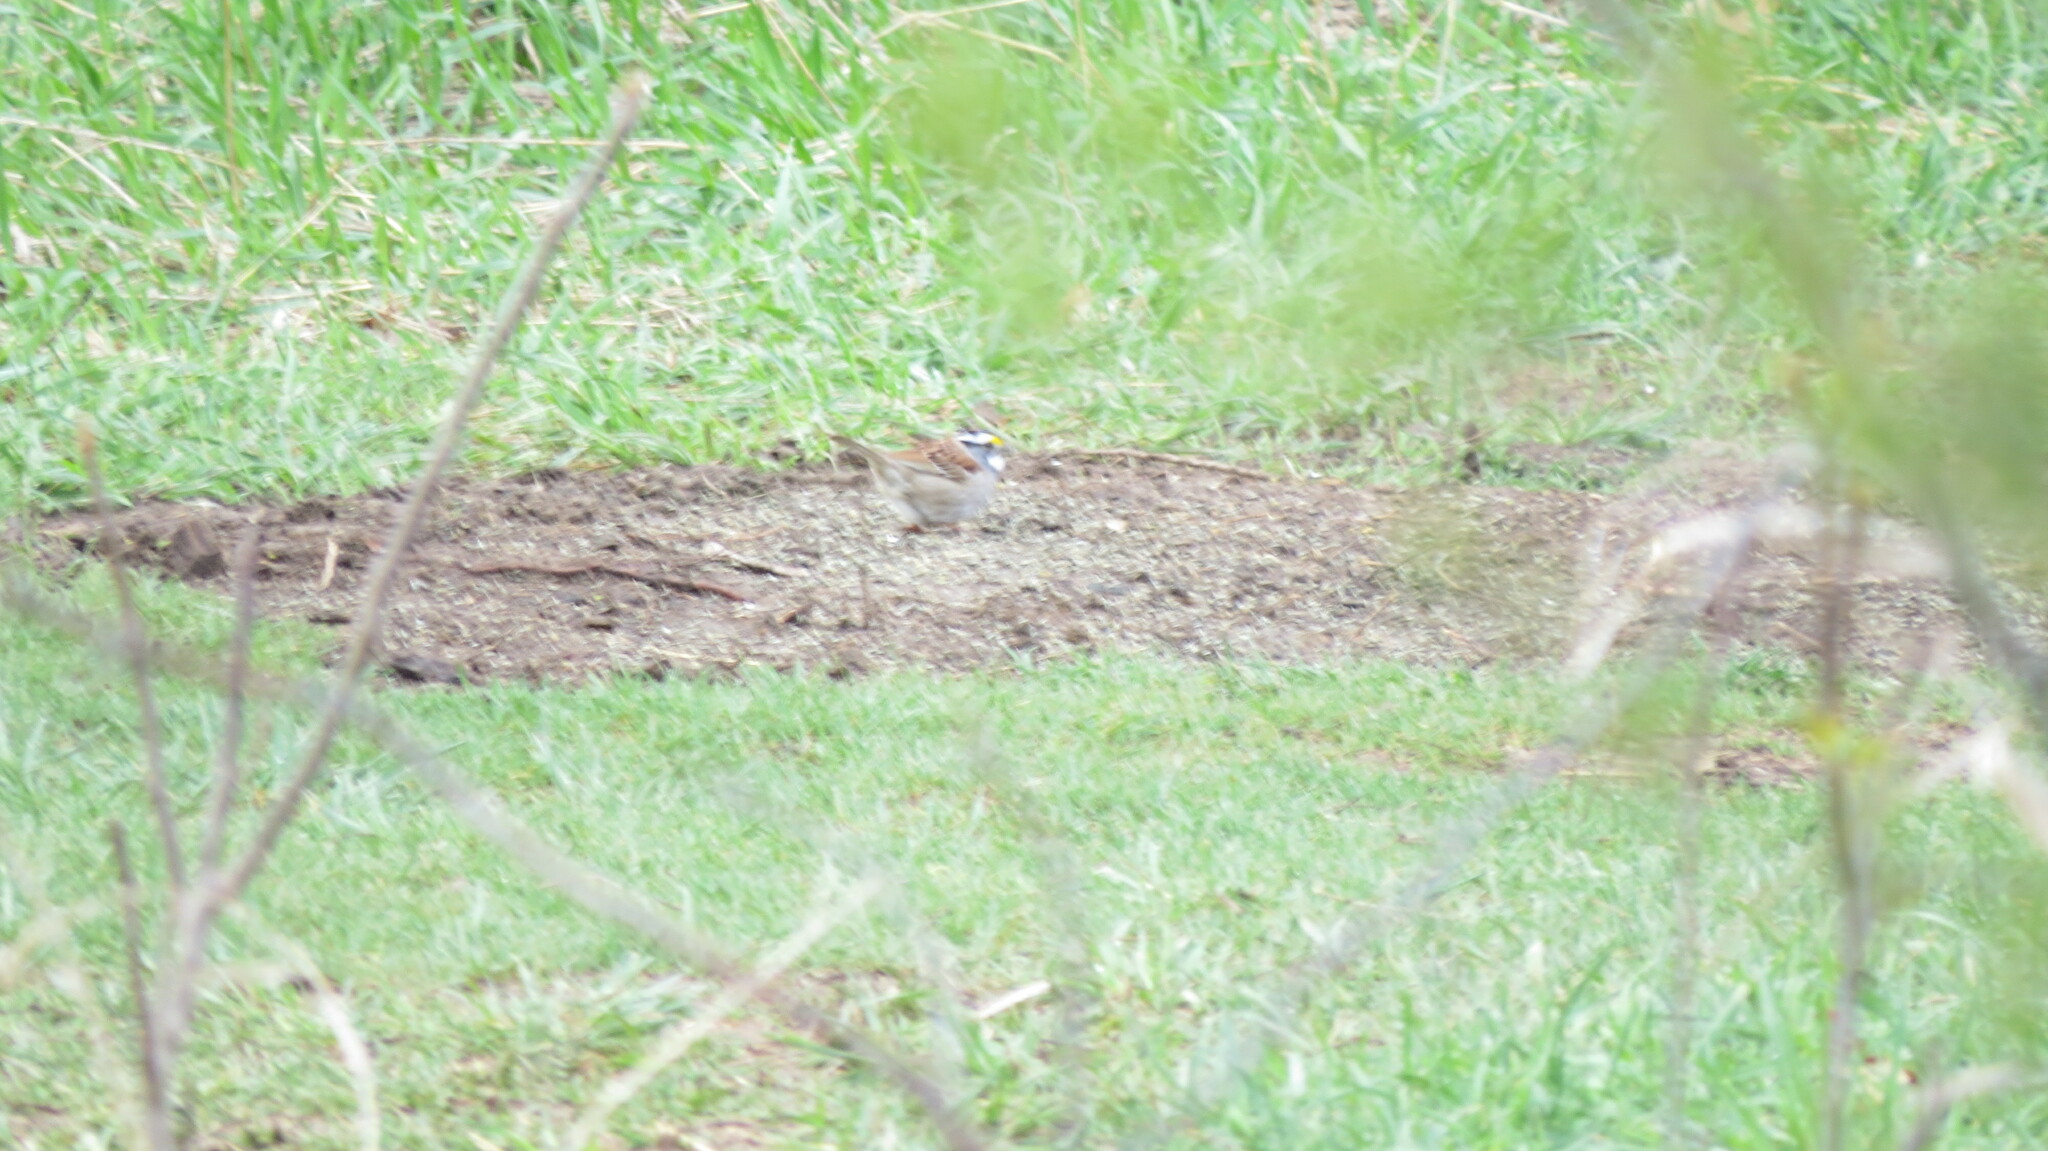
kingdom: Animalia
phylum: Chordata
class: Aves
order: Passeriformes
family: Passerellidae
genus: Zonotrichia
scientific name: Zonotrichia albicollis
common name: White-throated sparrow
